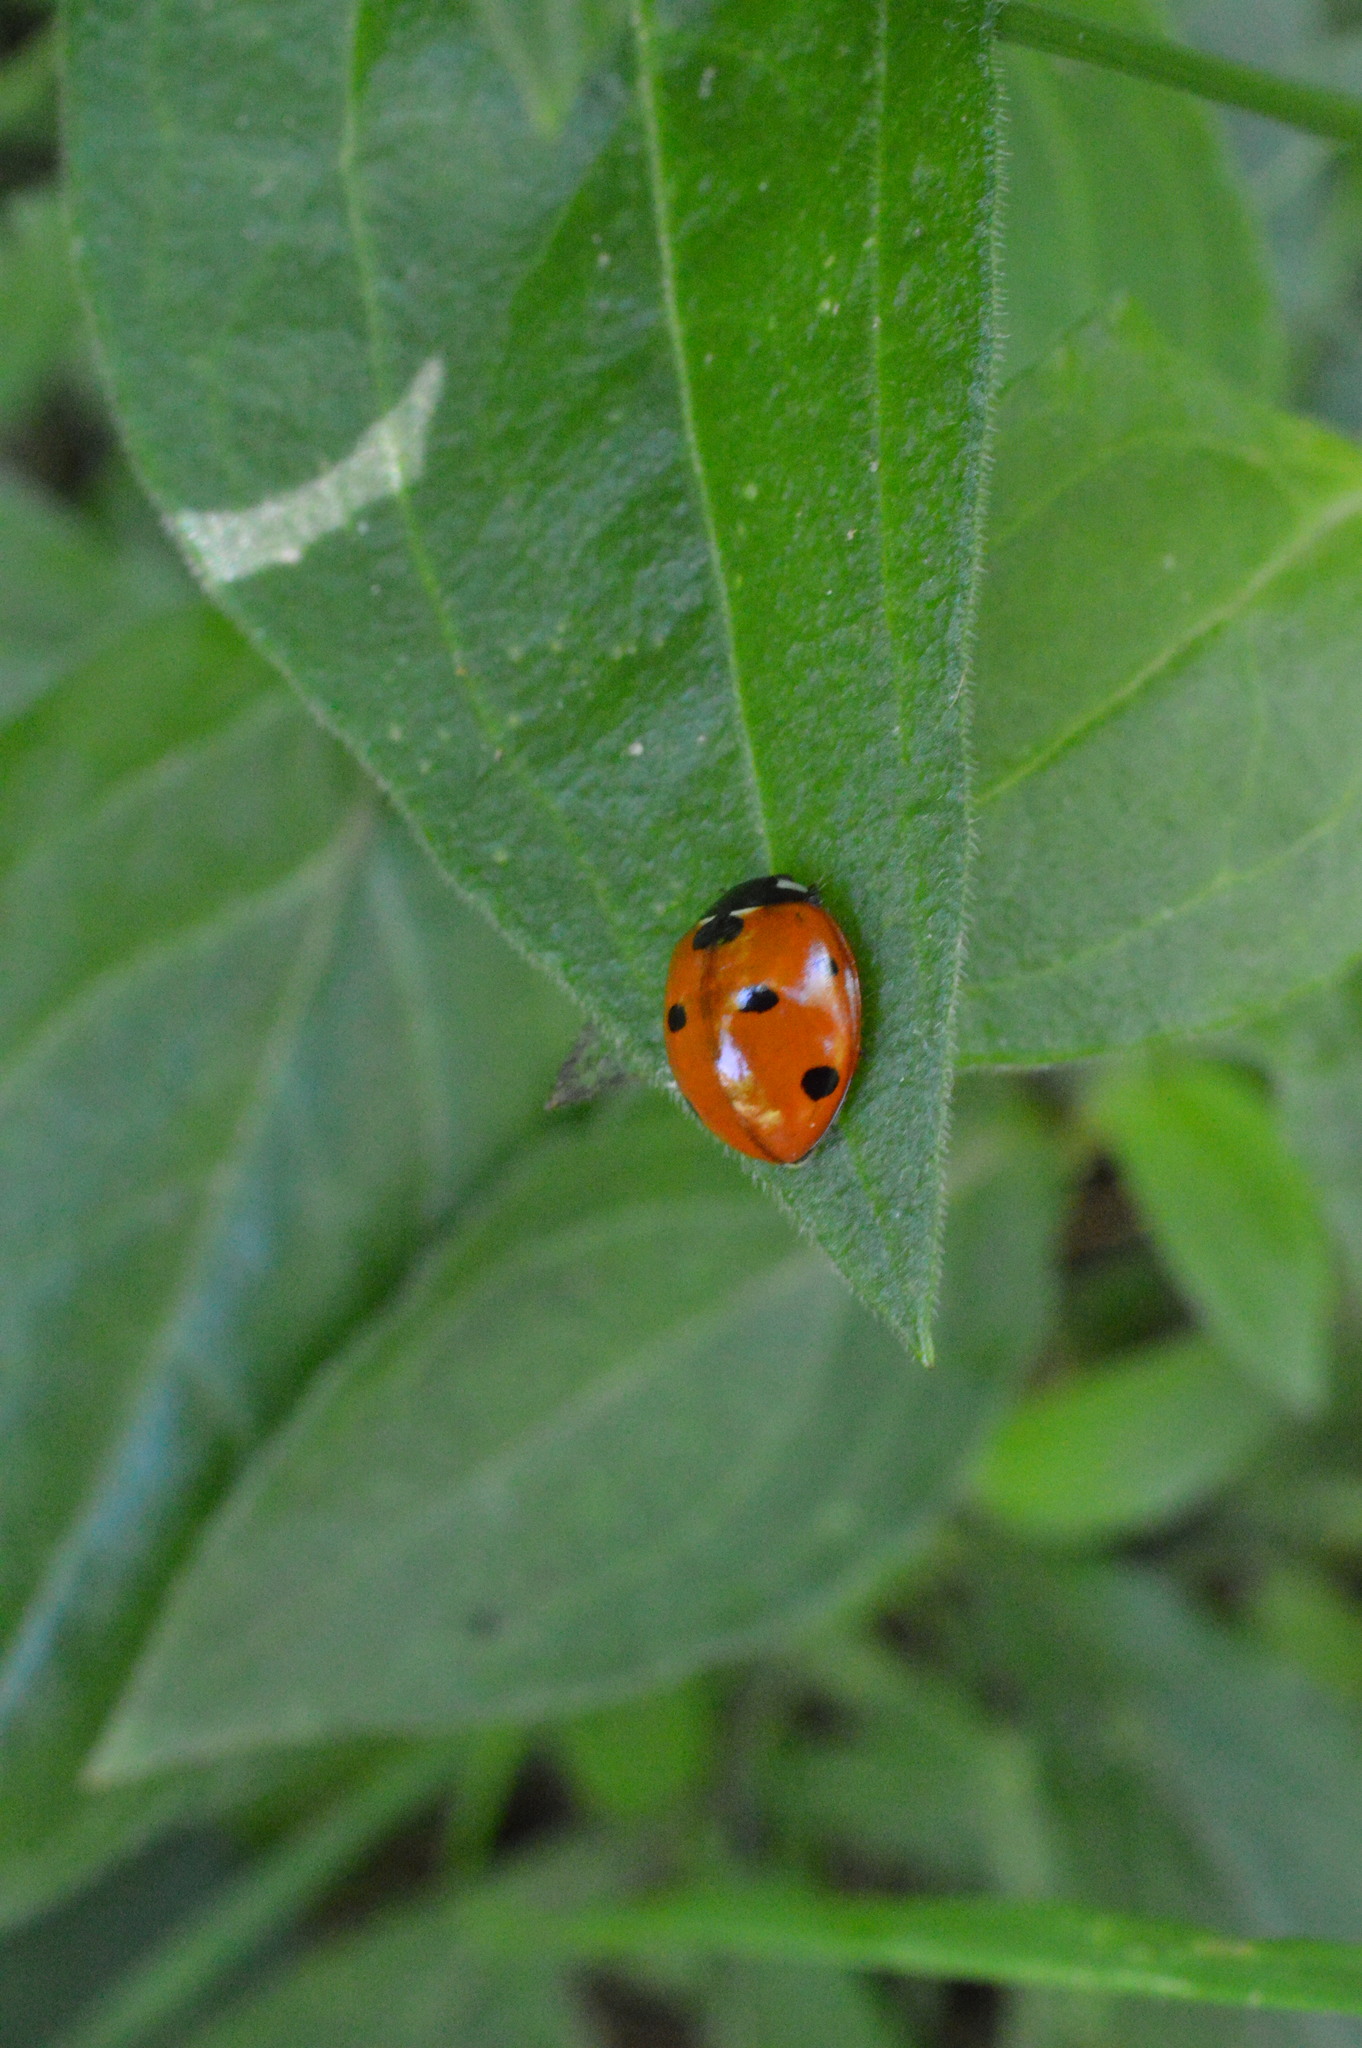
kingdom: Animalia
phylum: Arthropoda
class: Insecta
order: Coleoptera
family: Coccinellidae
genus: Coccinella
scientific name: Coccinella septempunctata
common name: Sevenspotted lady beetle
